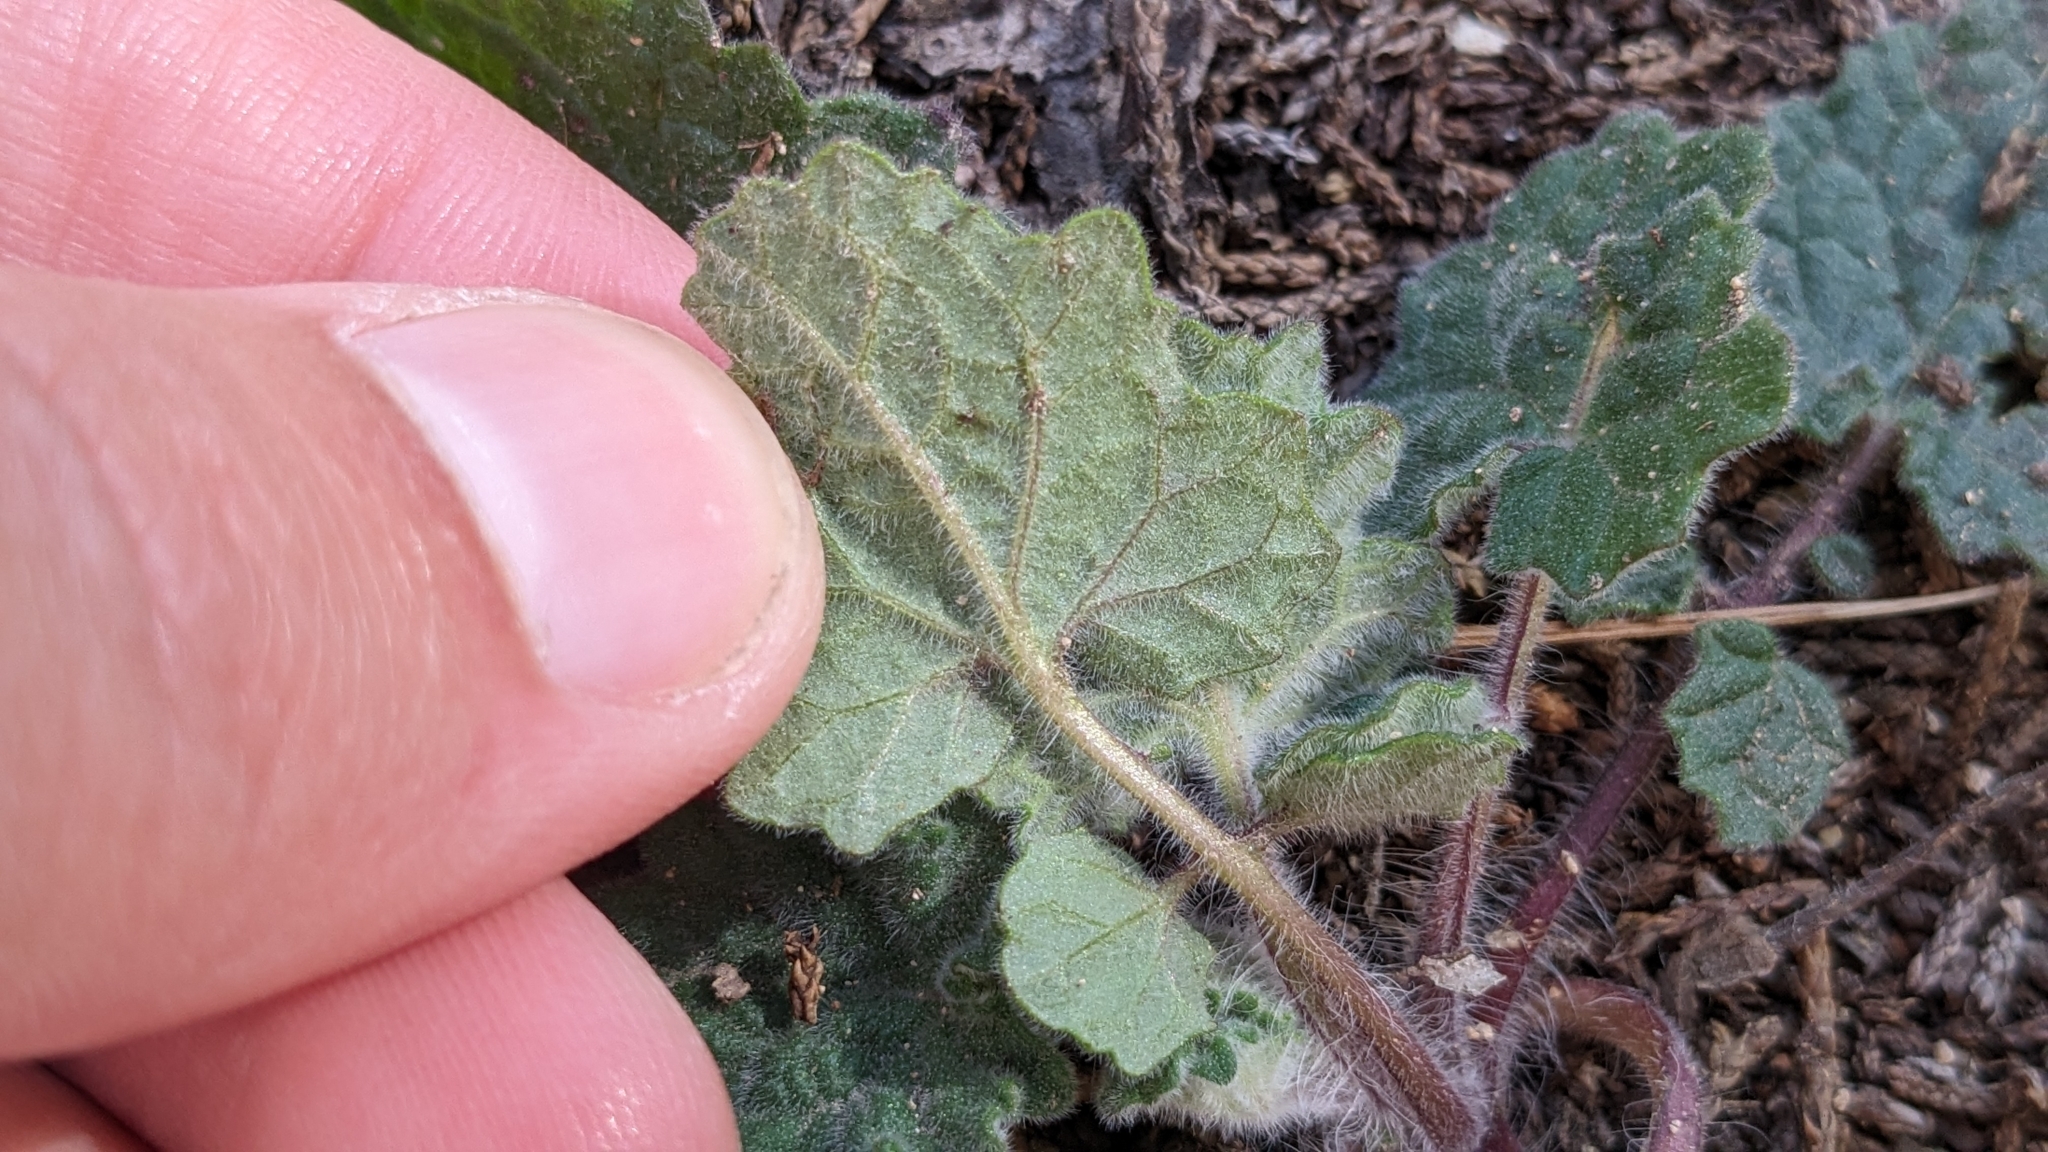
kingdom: Plantae
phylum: Tracheophyta
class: Magnoliopsida
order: Lamiales
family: Lamiaceae
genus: Salvia
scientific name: Salvia roemeriana
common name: Cedar sage
